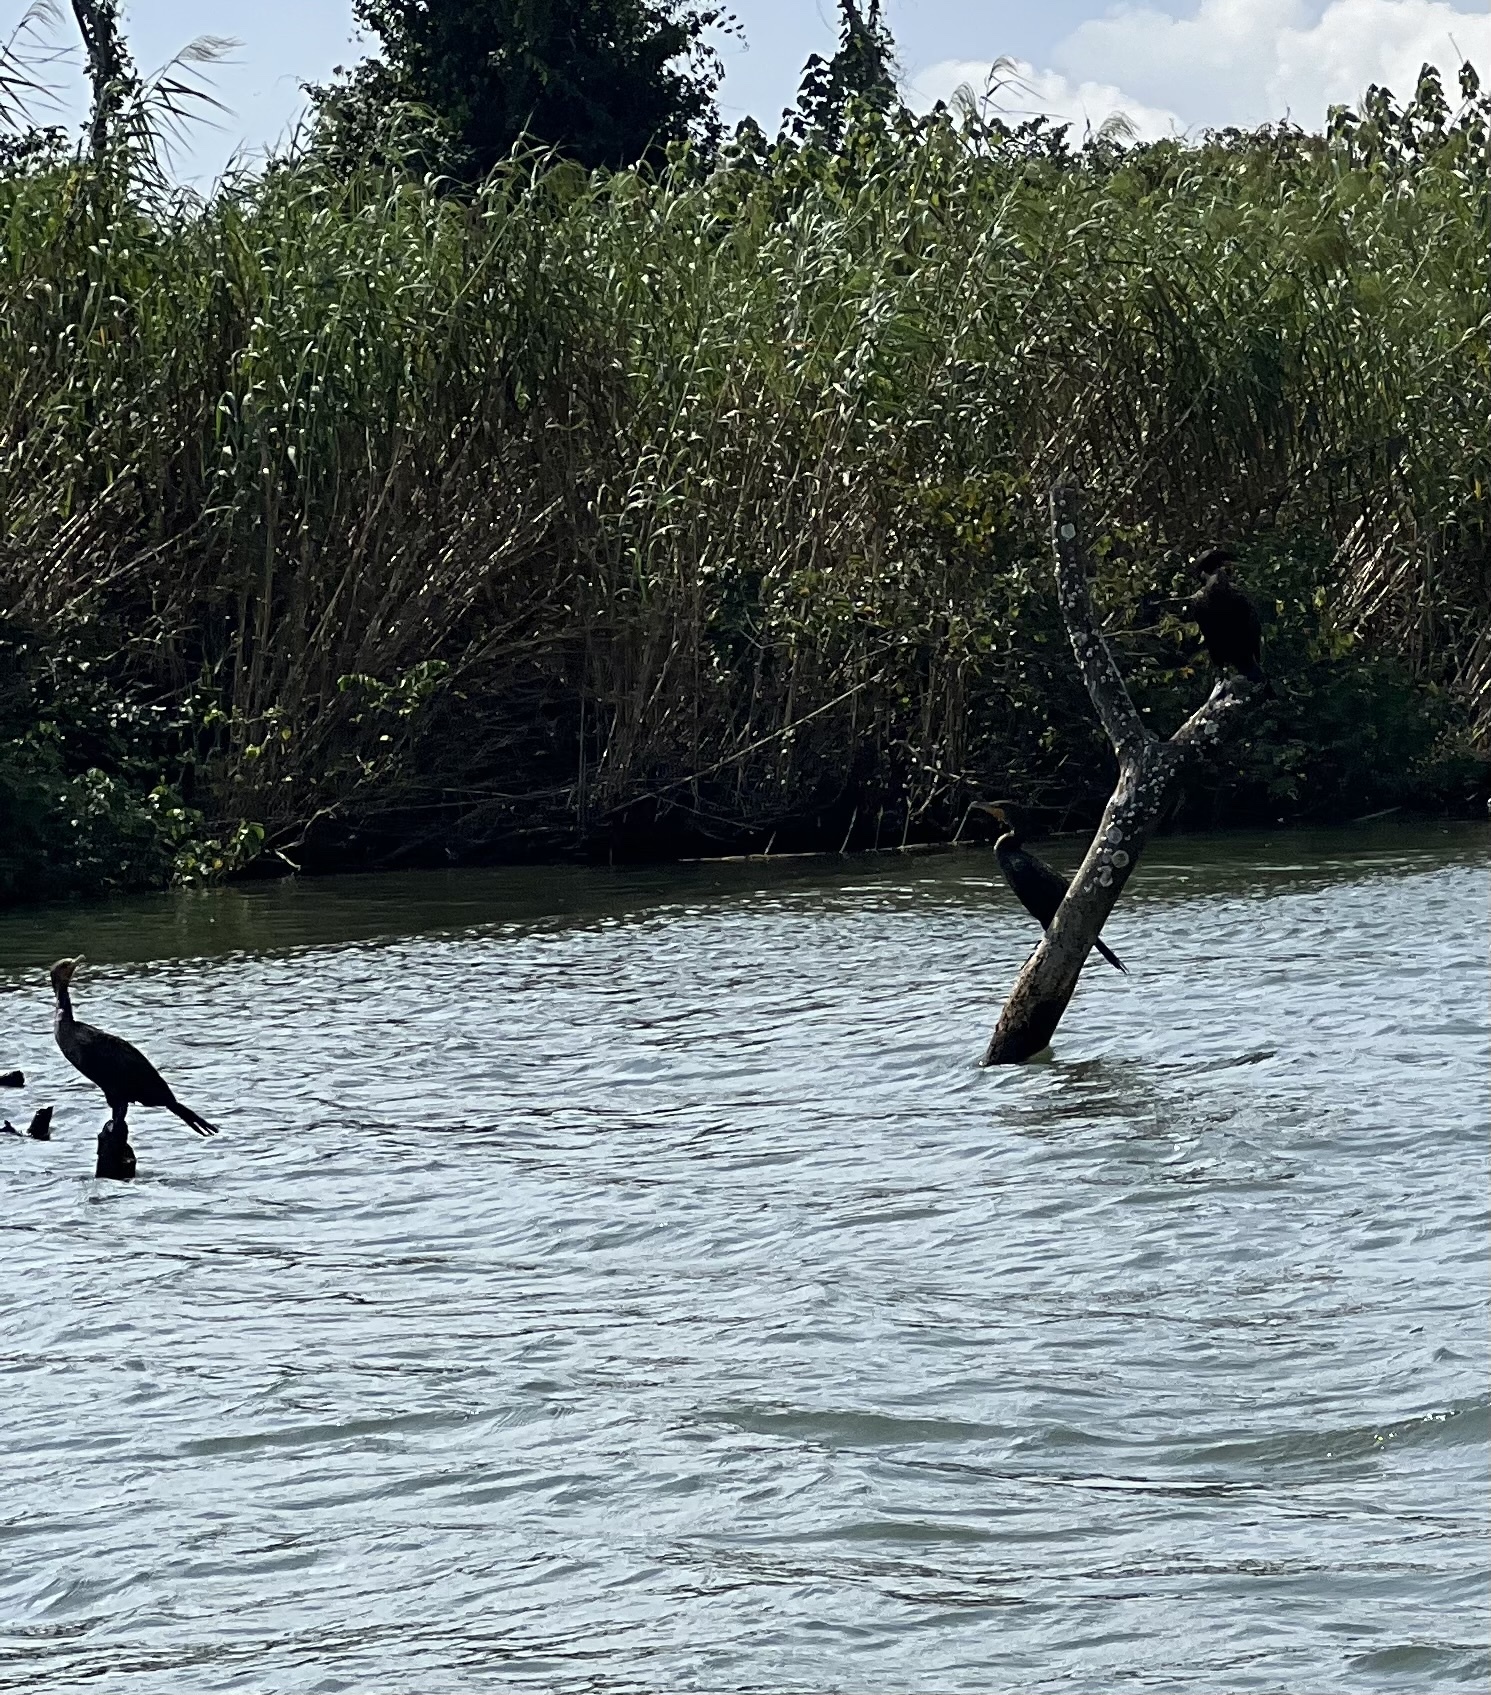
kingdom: Animalia
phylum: Chordata
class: Aves
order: Suliformes
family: Phalacrocoracidae
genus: Phalacrocorax
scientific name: Phalacrocorax brasilianus
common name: Neotropic cormorant
